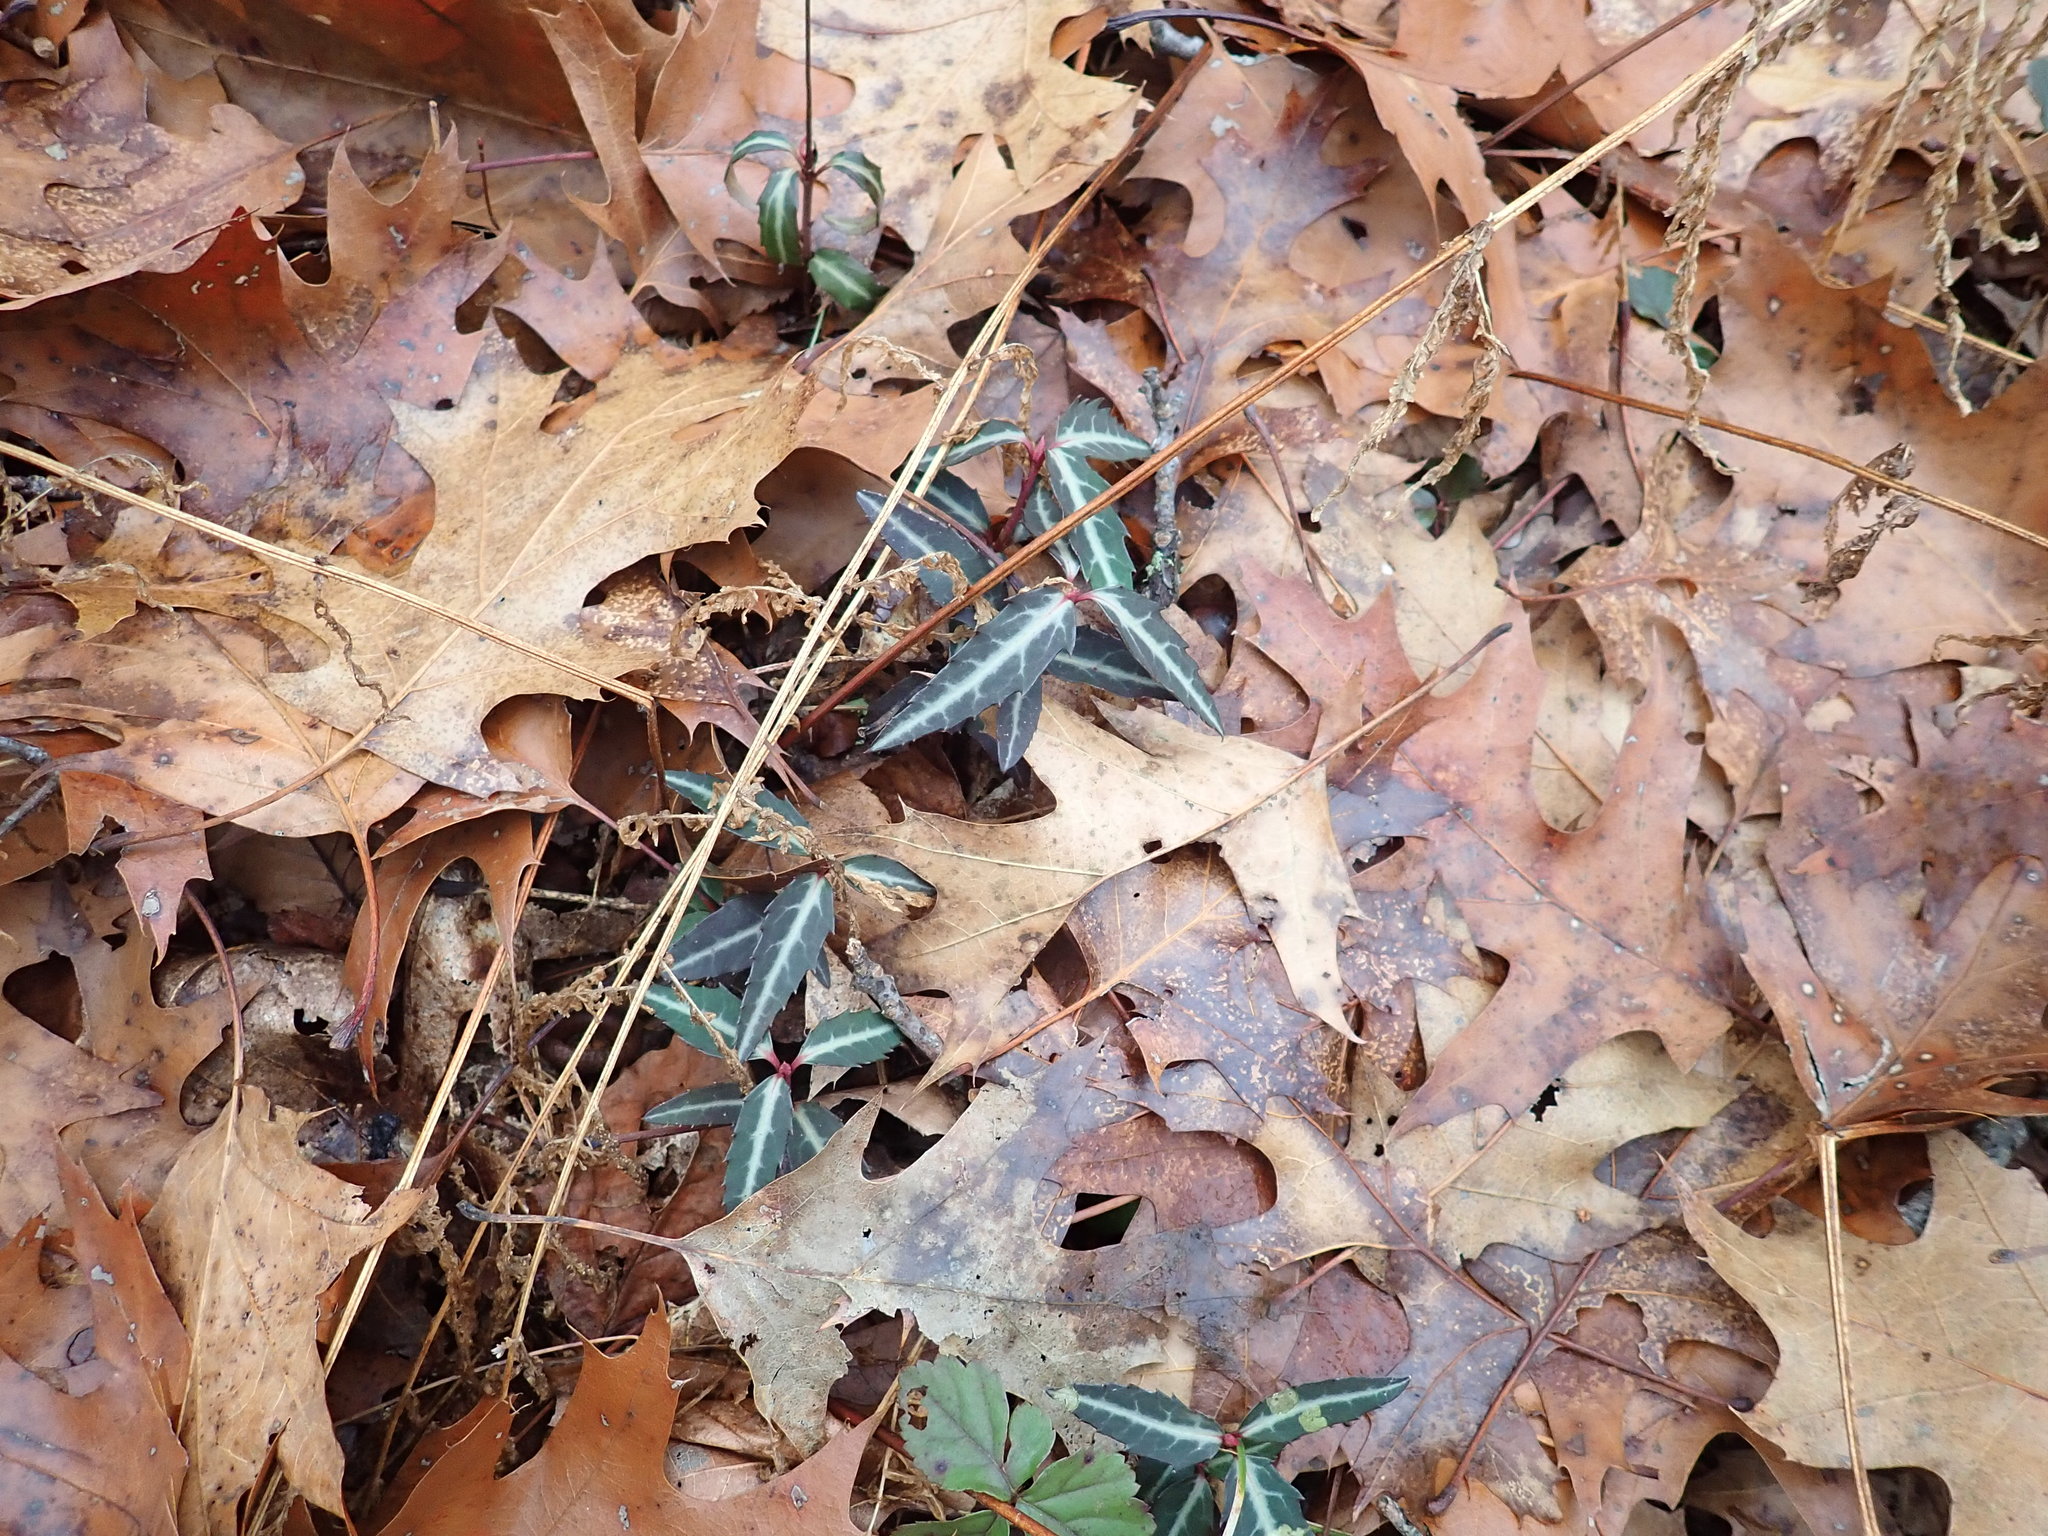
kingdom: Plantae
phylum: Tracheophyta
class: Magnoliopsida
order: Ericales
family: Ericaceae
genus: Chimaphila
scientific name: Chimaphila maculata
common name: Spotted pipsissewa
